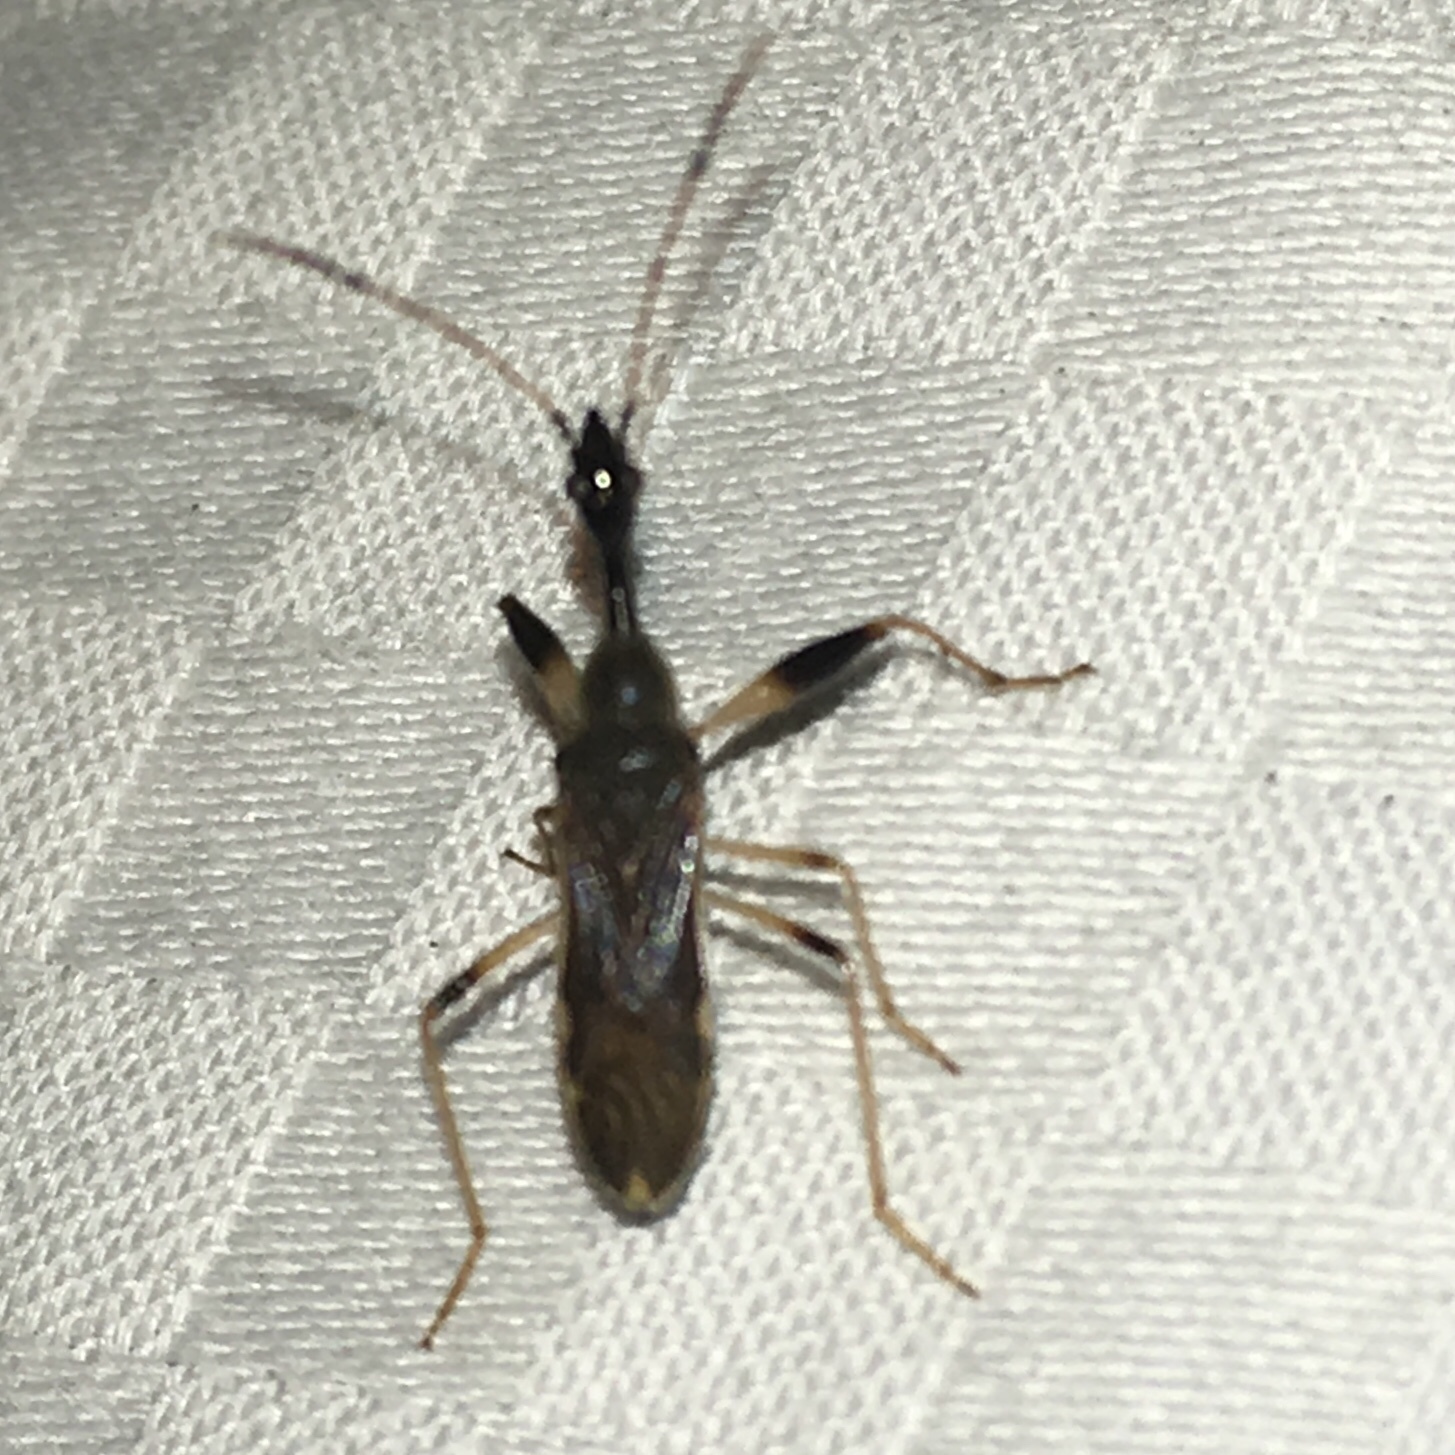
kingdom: Animalia
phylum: Arthropoda
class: Insecta
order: Hemiptera
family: Rhyparochromidae
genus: Myodocha
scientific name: Myodocha serripes
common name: Long-necked seed bug
